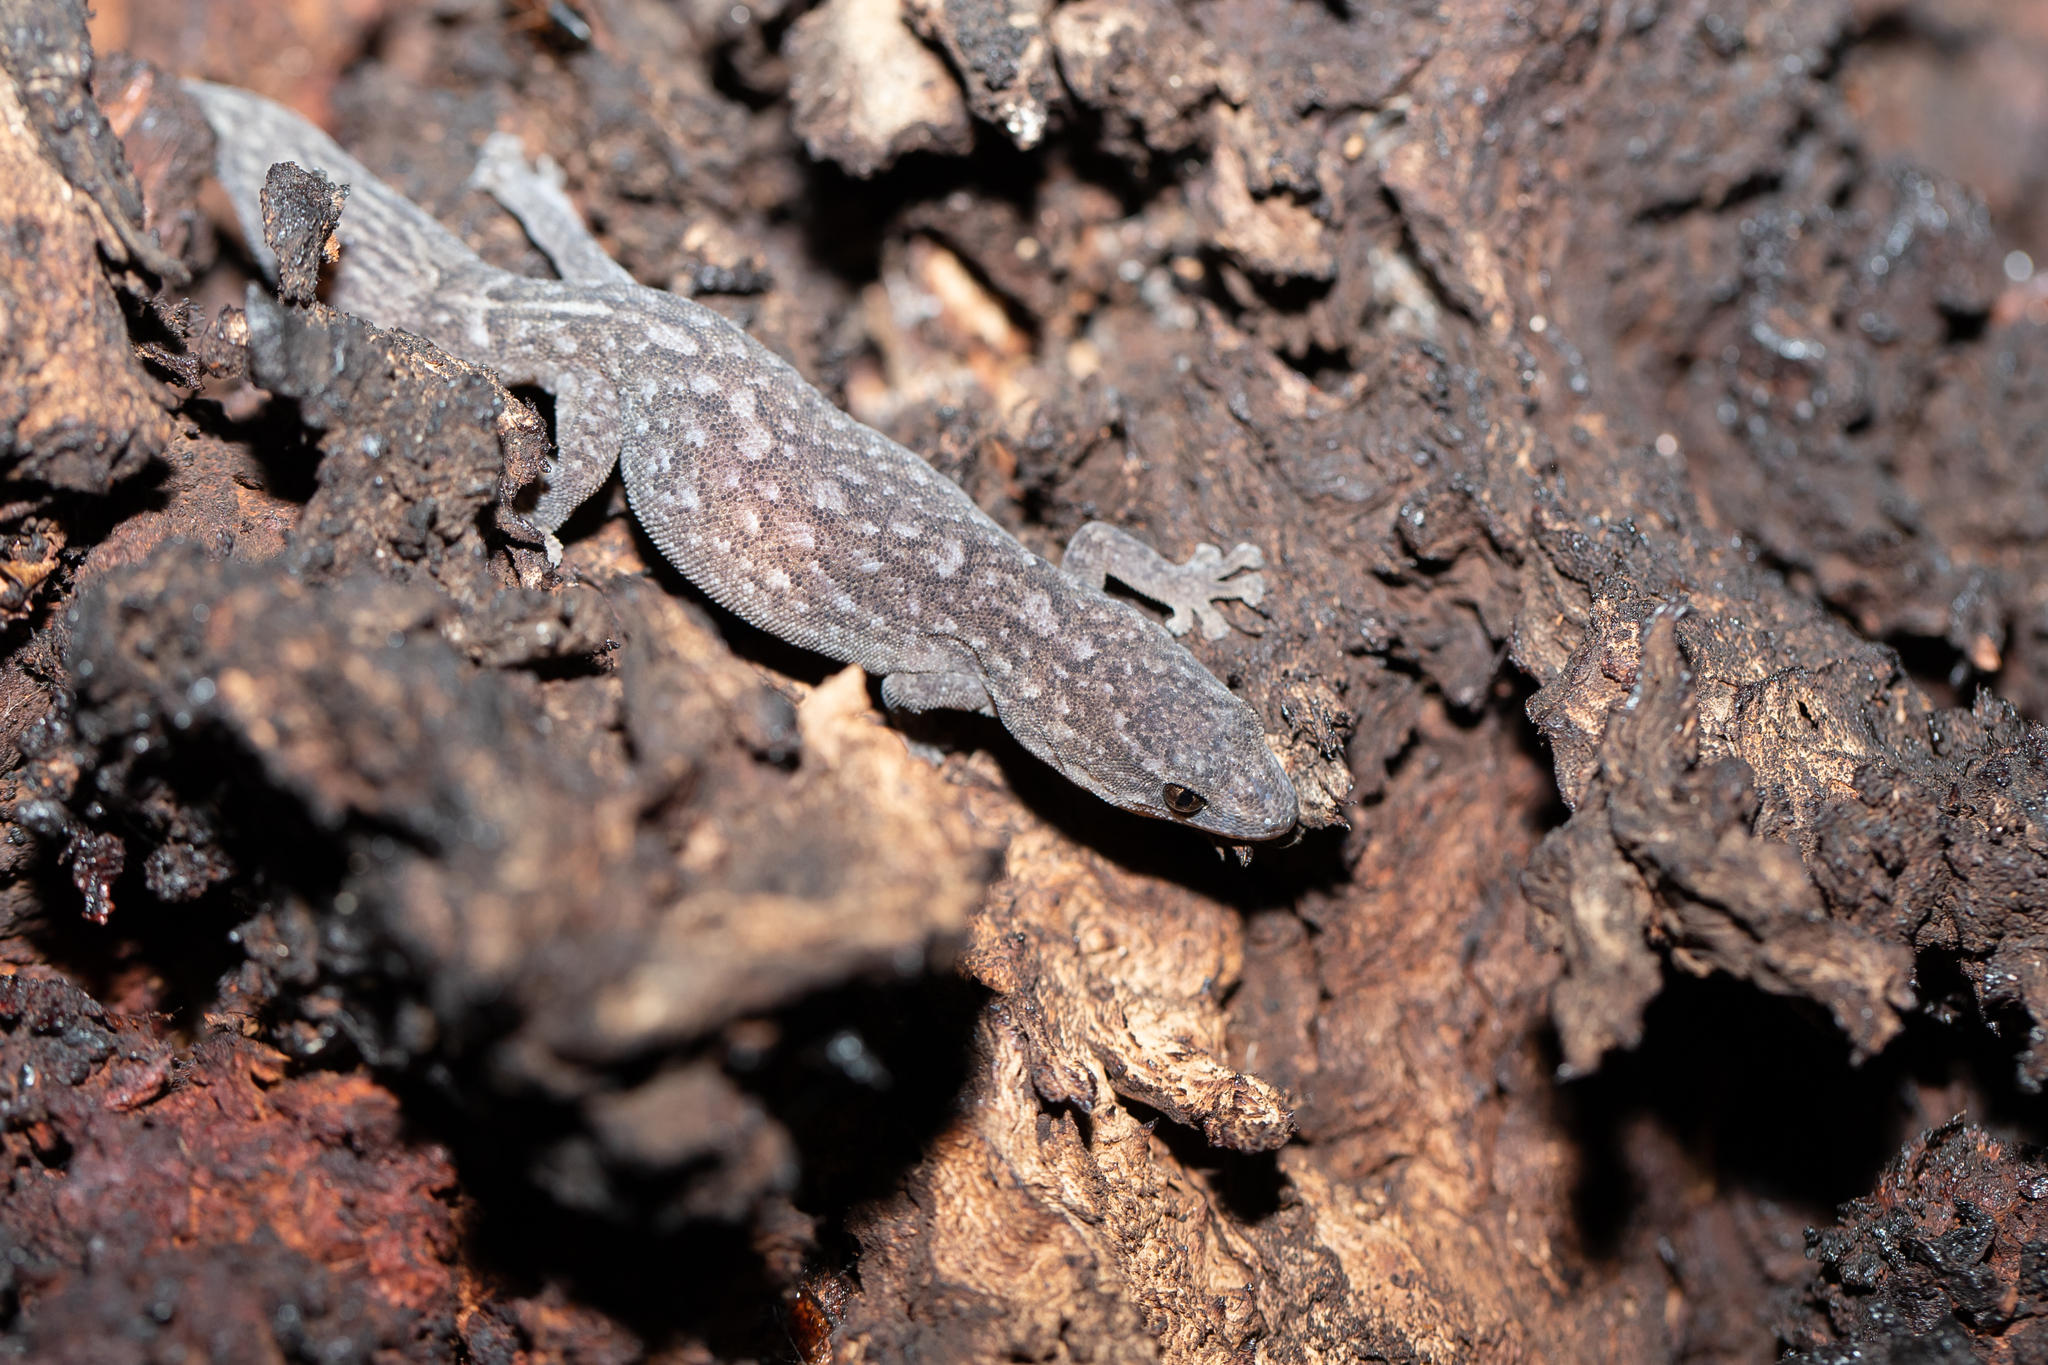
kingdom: Animalia
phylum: Chordata
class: Squamata
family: Gekkonidae
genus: Christinus
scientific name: Christinus marmoratus
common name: Marbled gecko
